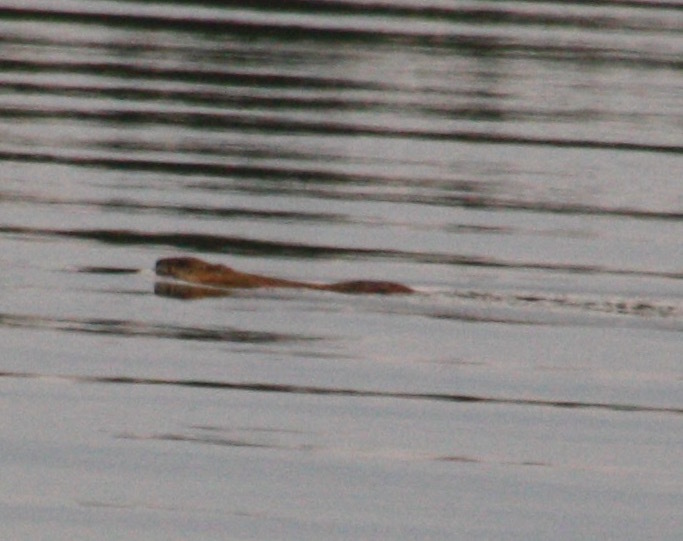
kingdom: Animalia
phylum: Chordata
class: Mammalia
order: Rodentia
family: Cricetidae
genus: Ondatra
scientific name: Ondatra zibethicus
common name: Muskrat
